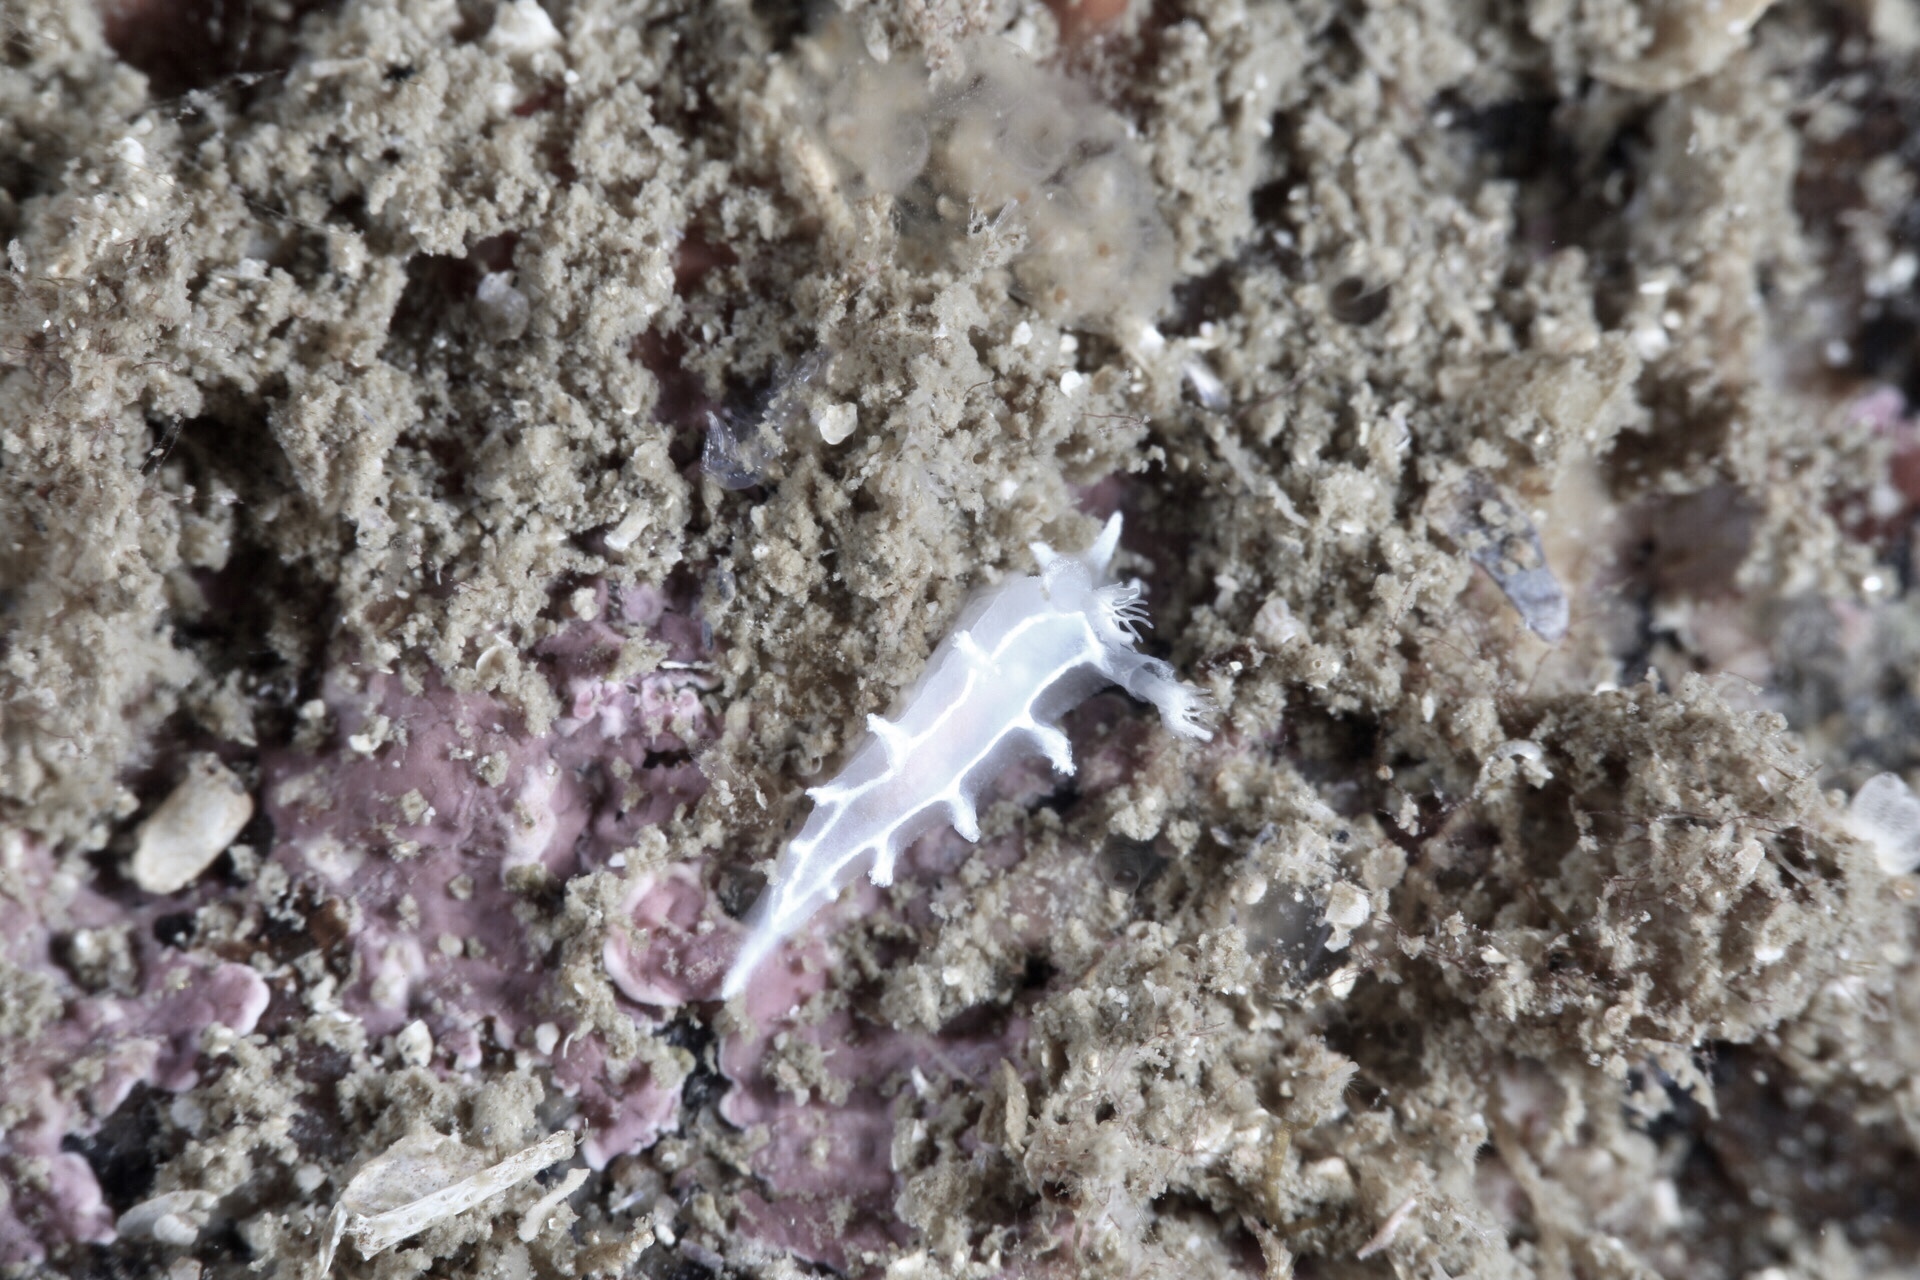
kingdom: Animalia
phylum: Mollusca
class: Gastropoda
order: Nudibranchia
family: Tritoniidae
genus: Duvaucelia
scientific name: Duvaucelia lineata
